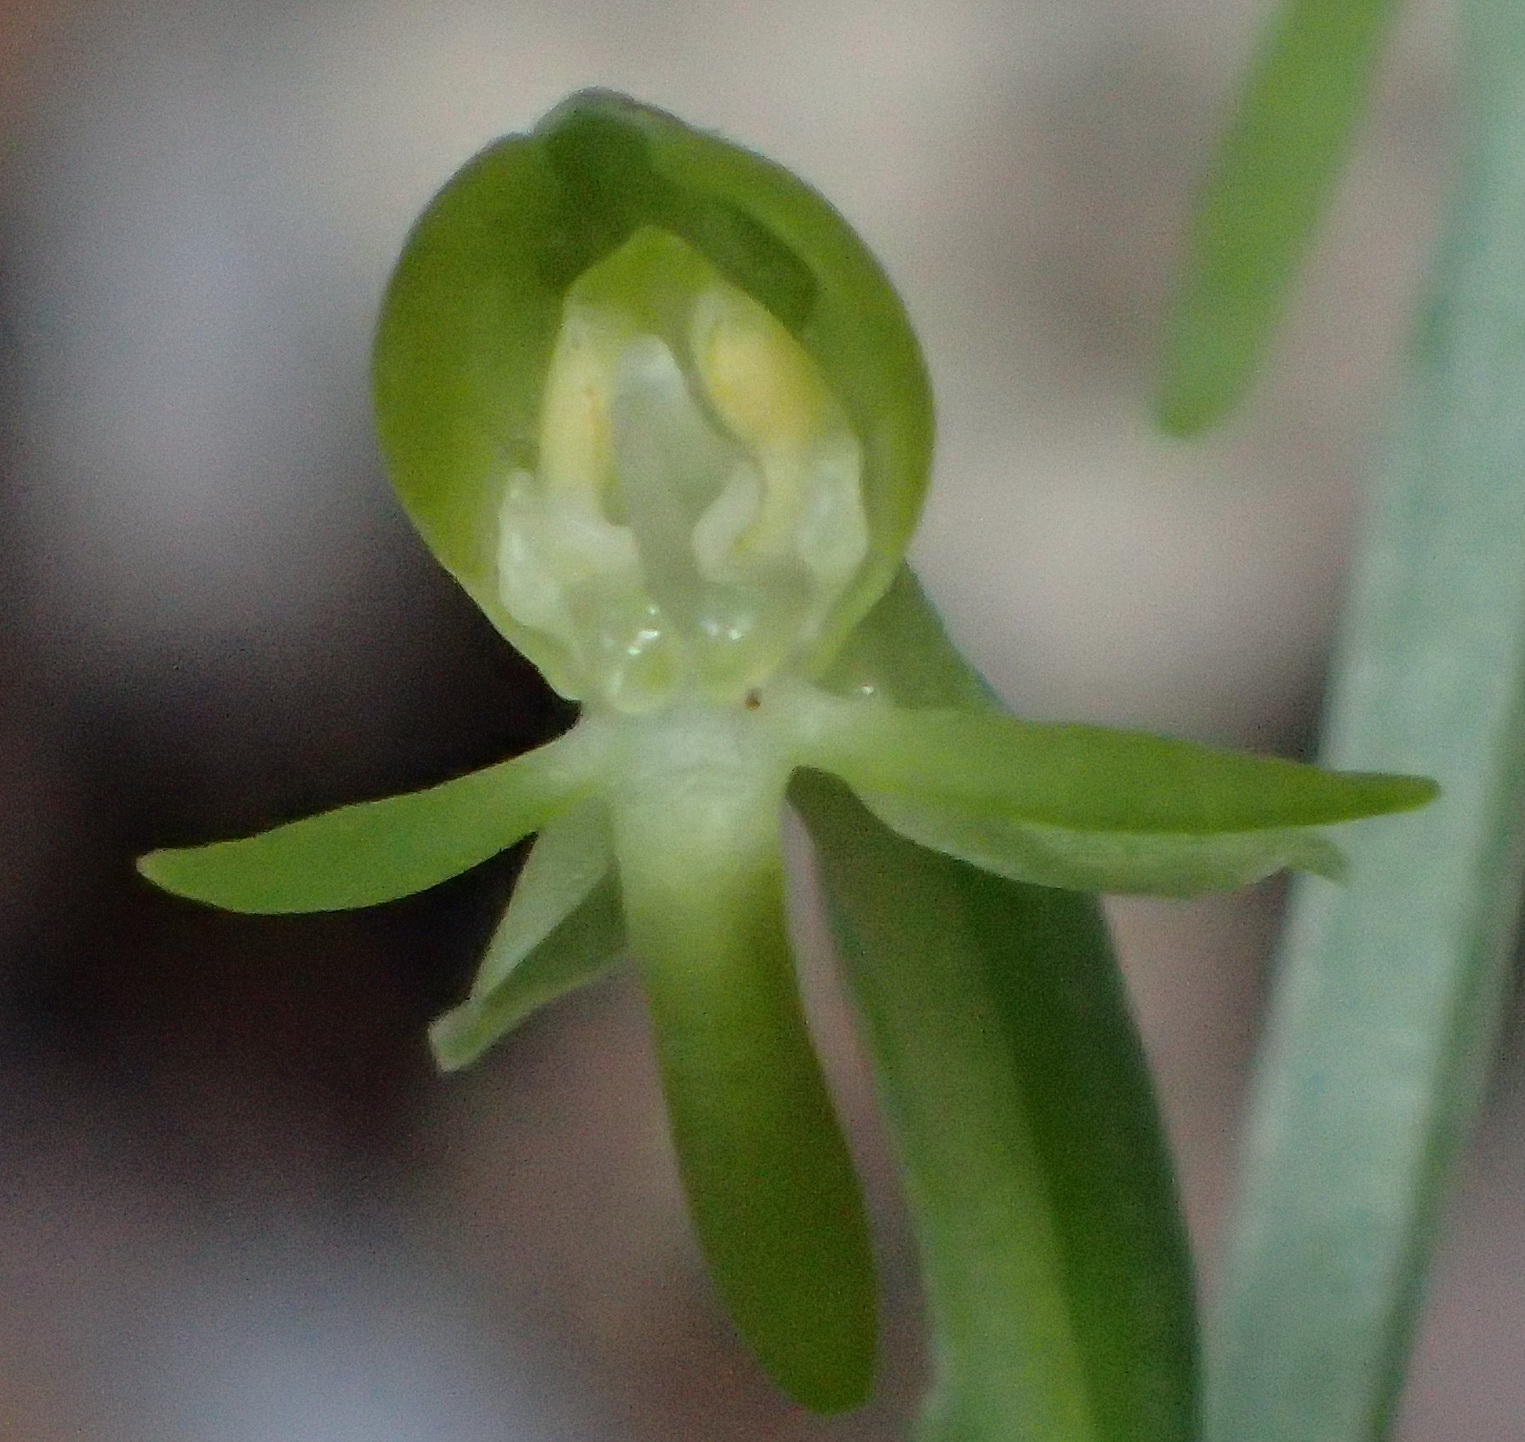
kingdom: Plantae
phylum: Tracheophyta
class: Liliopsida
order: Asparagales
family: Orchidaceae
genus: Habenaria
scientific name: Habenaria arenaria
